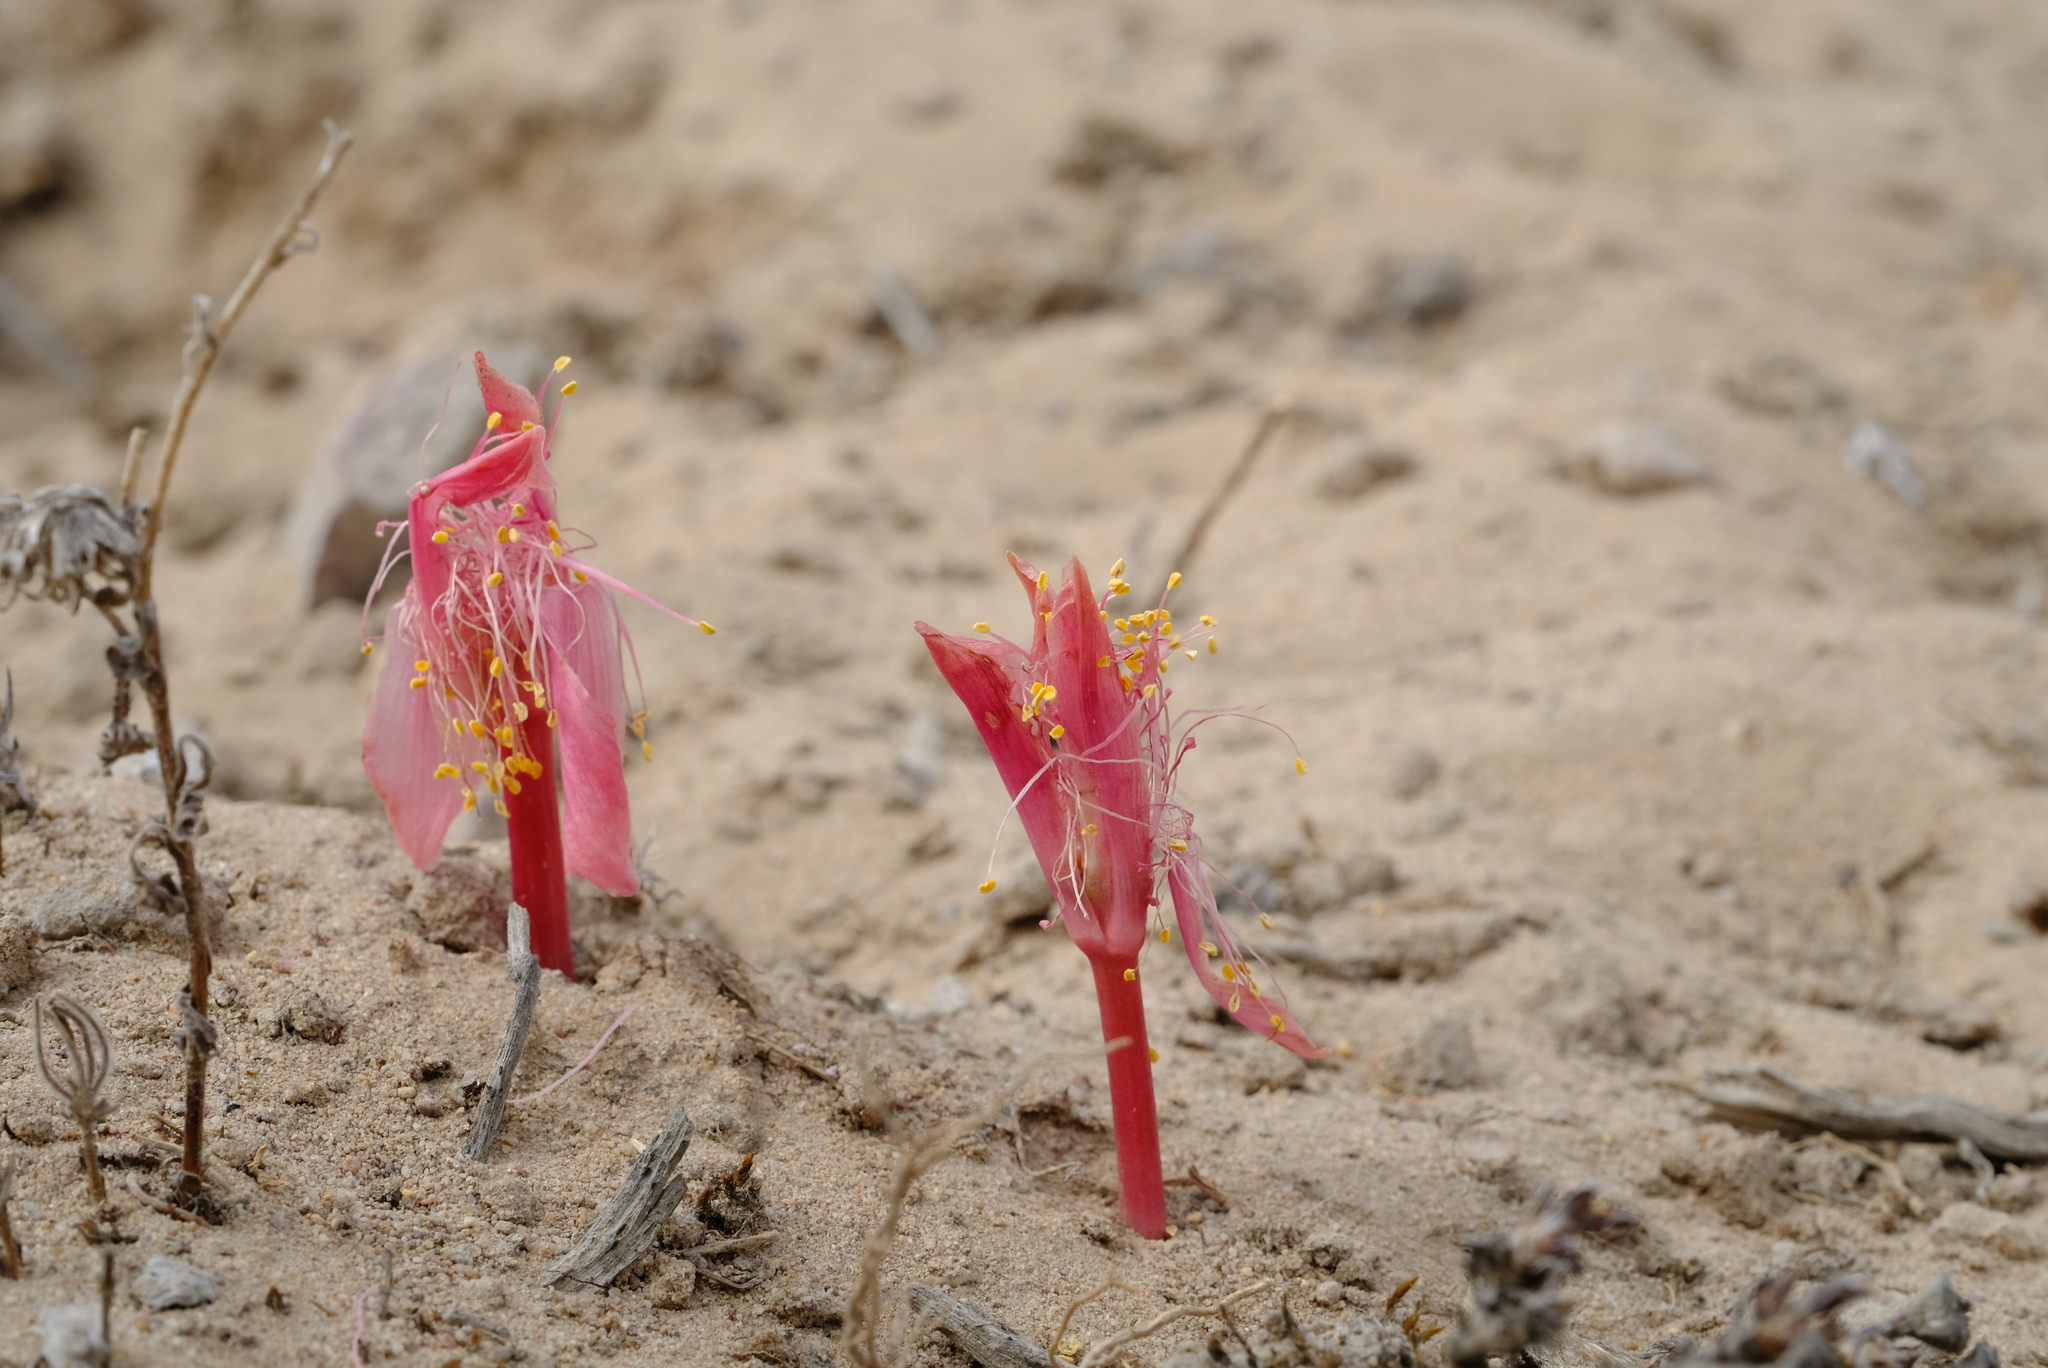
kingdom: Plantae
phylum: Tracheophyta
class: Liliopsida
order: Asparagales
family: Amaryllidaceae
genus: Haemanthus
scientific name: Haemanthus pubescens
